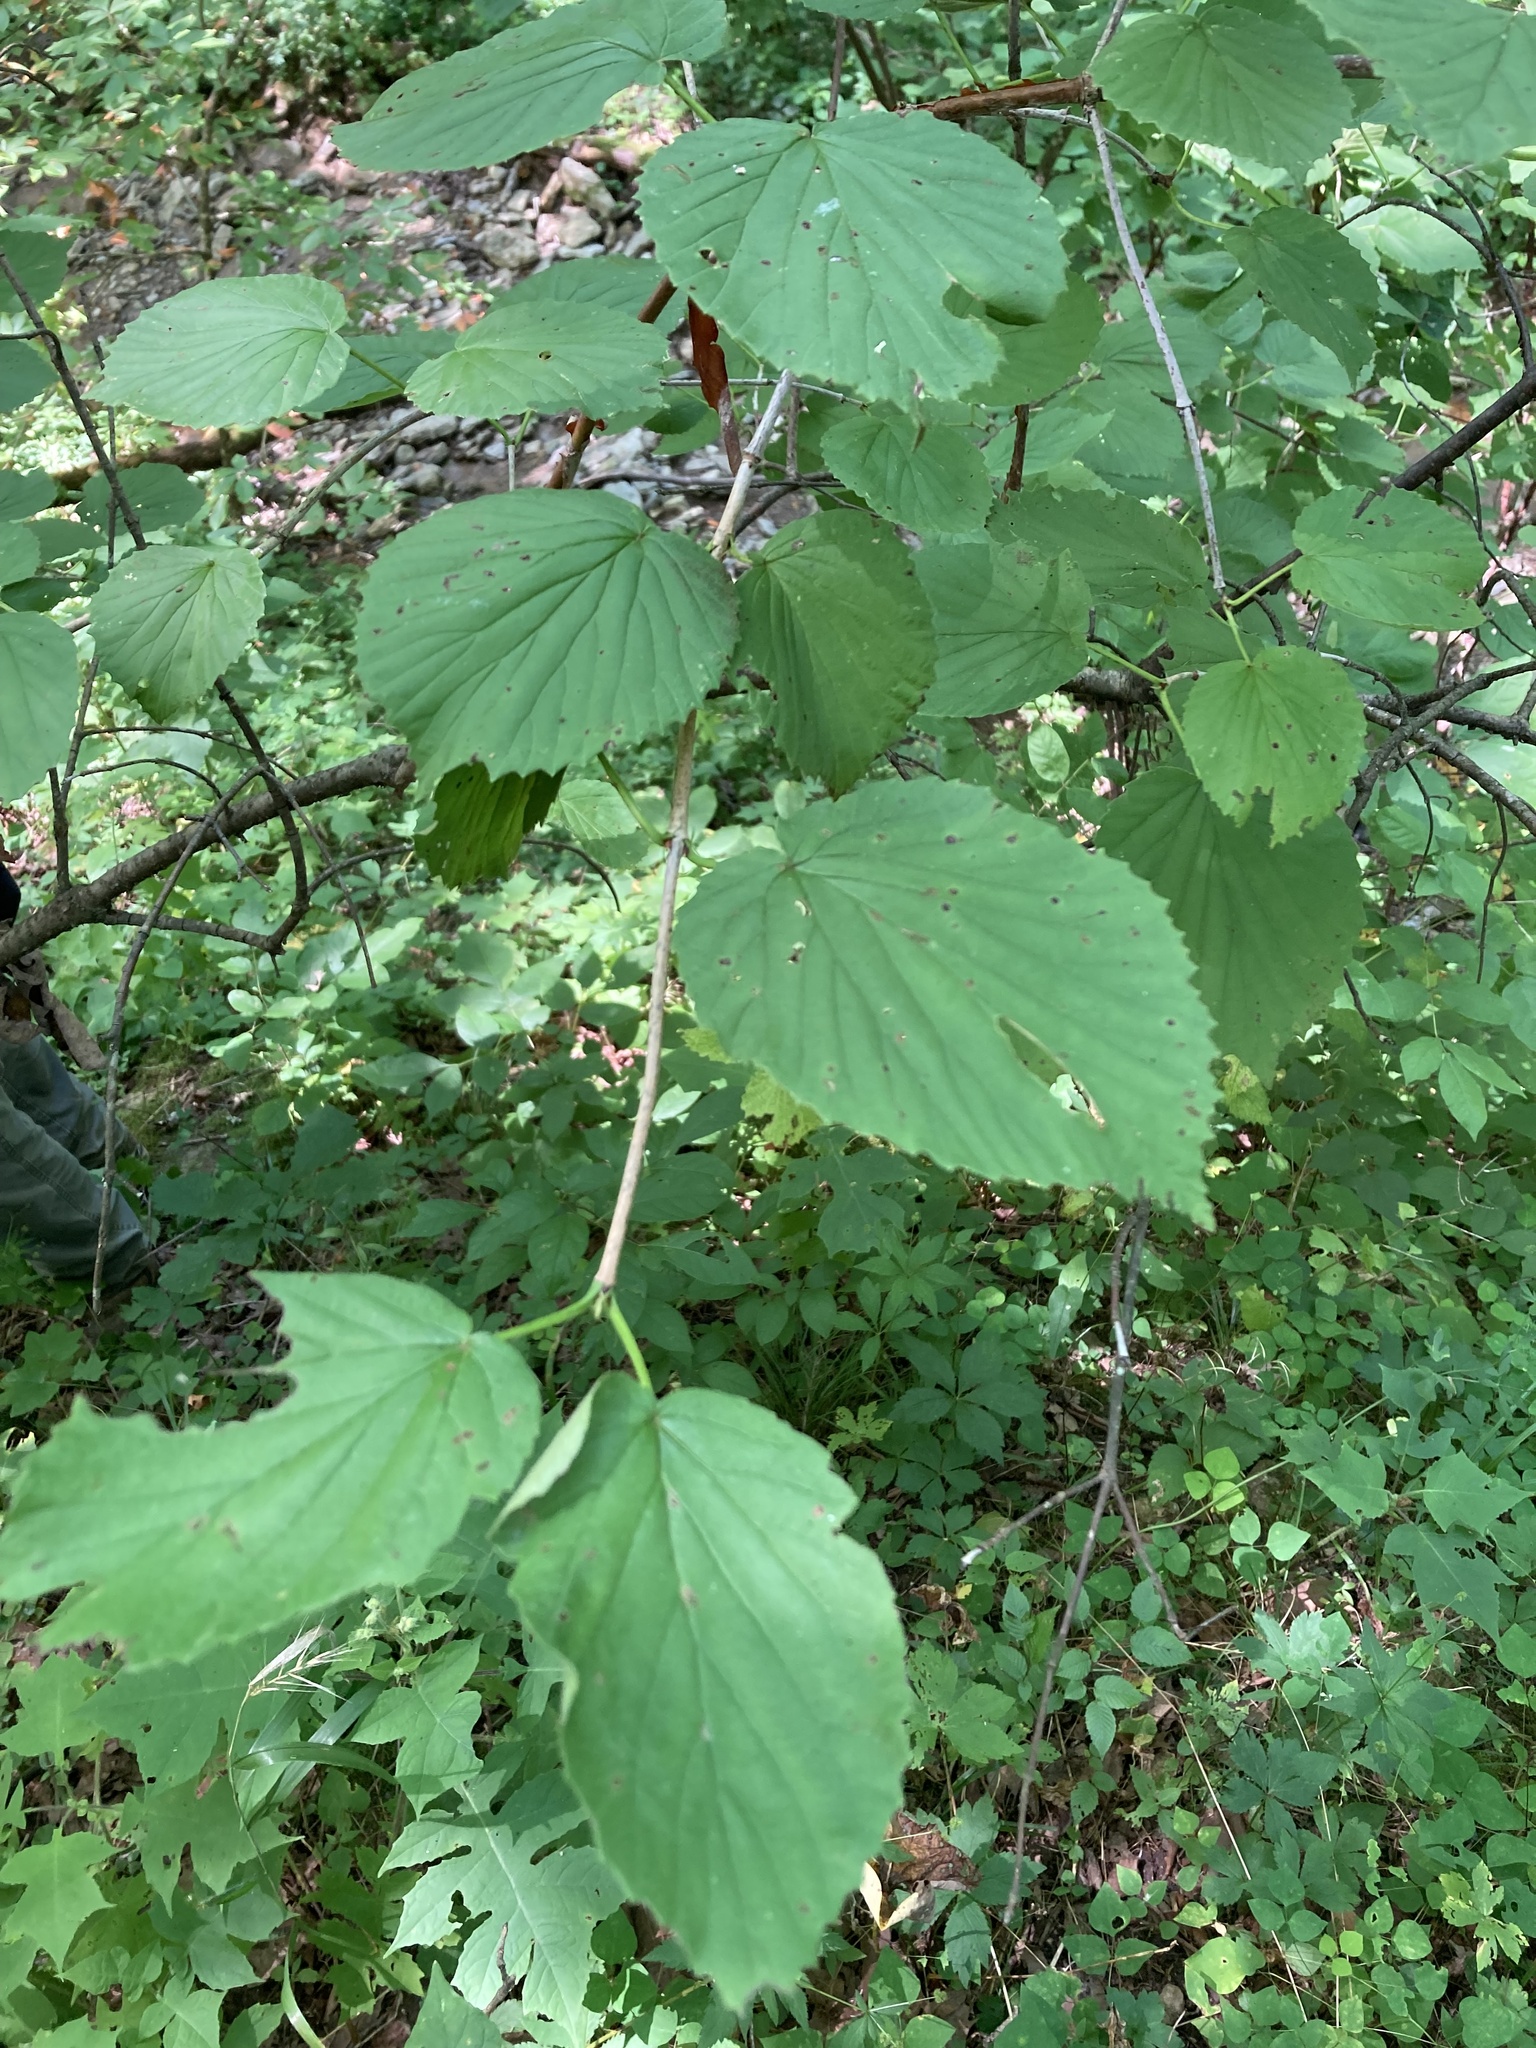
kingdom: Plantae
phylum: Tracheophyta
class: Magnoliopsida
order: Dipsacales
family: Viburnaceae
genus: Viburnum
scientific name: Viburnum molle
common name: Soft-leaf arrow-wood
